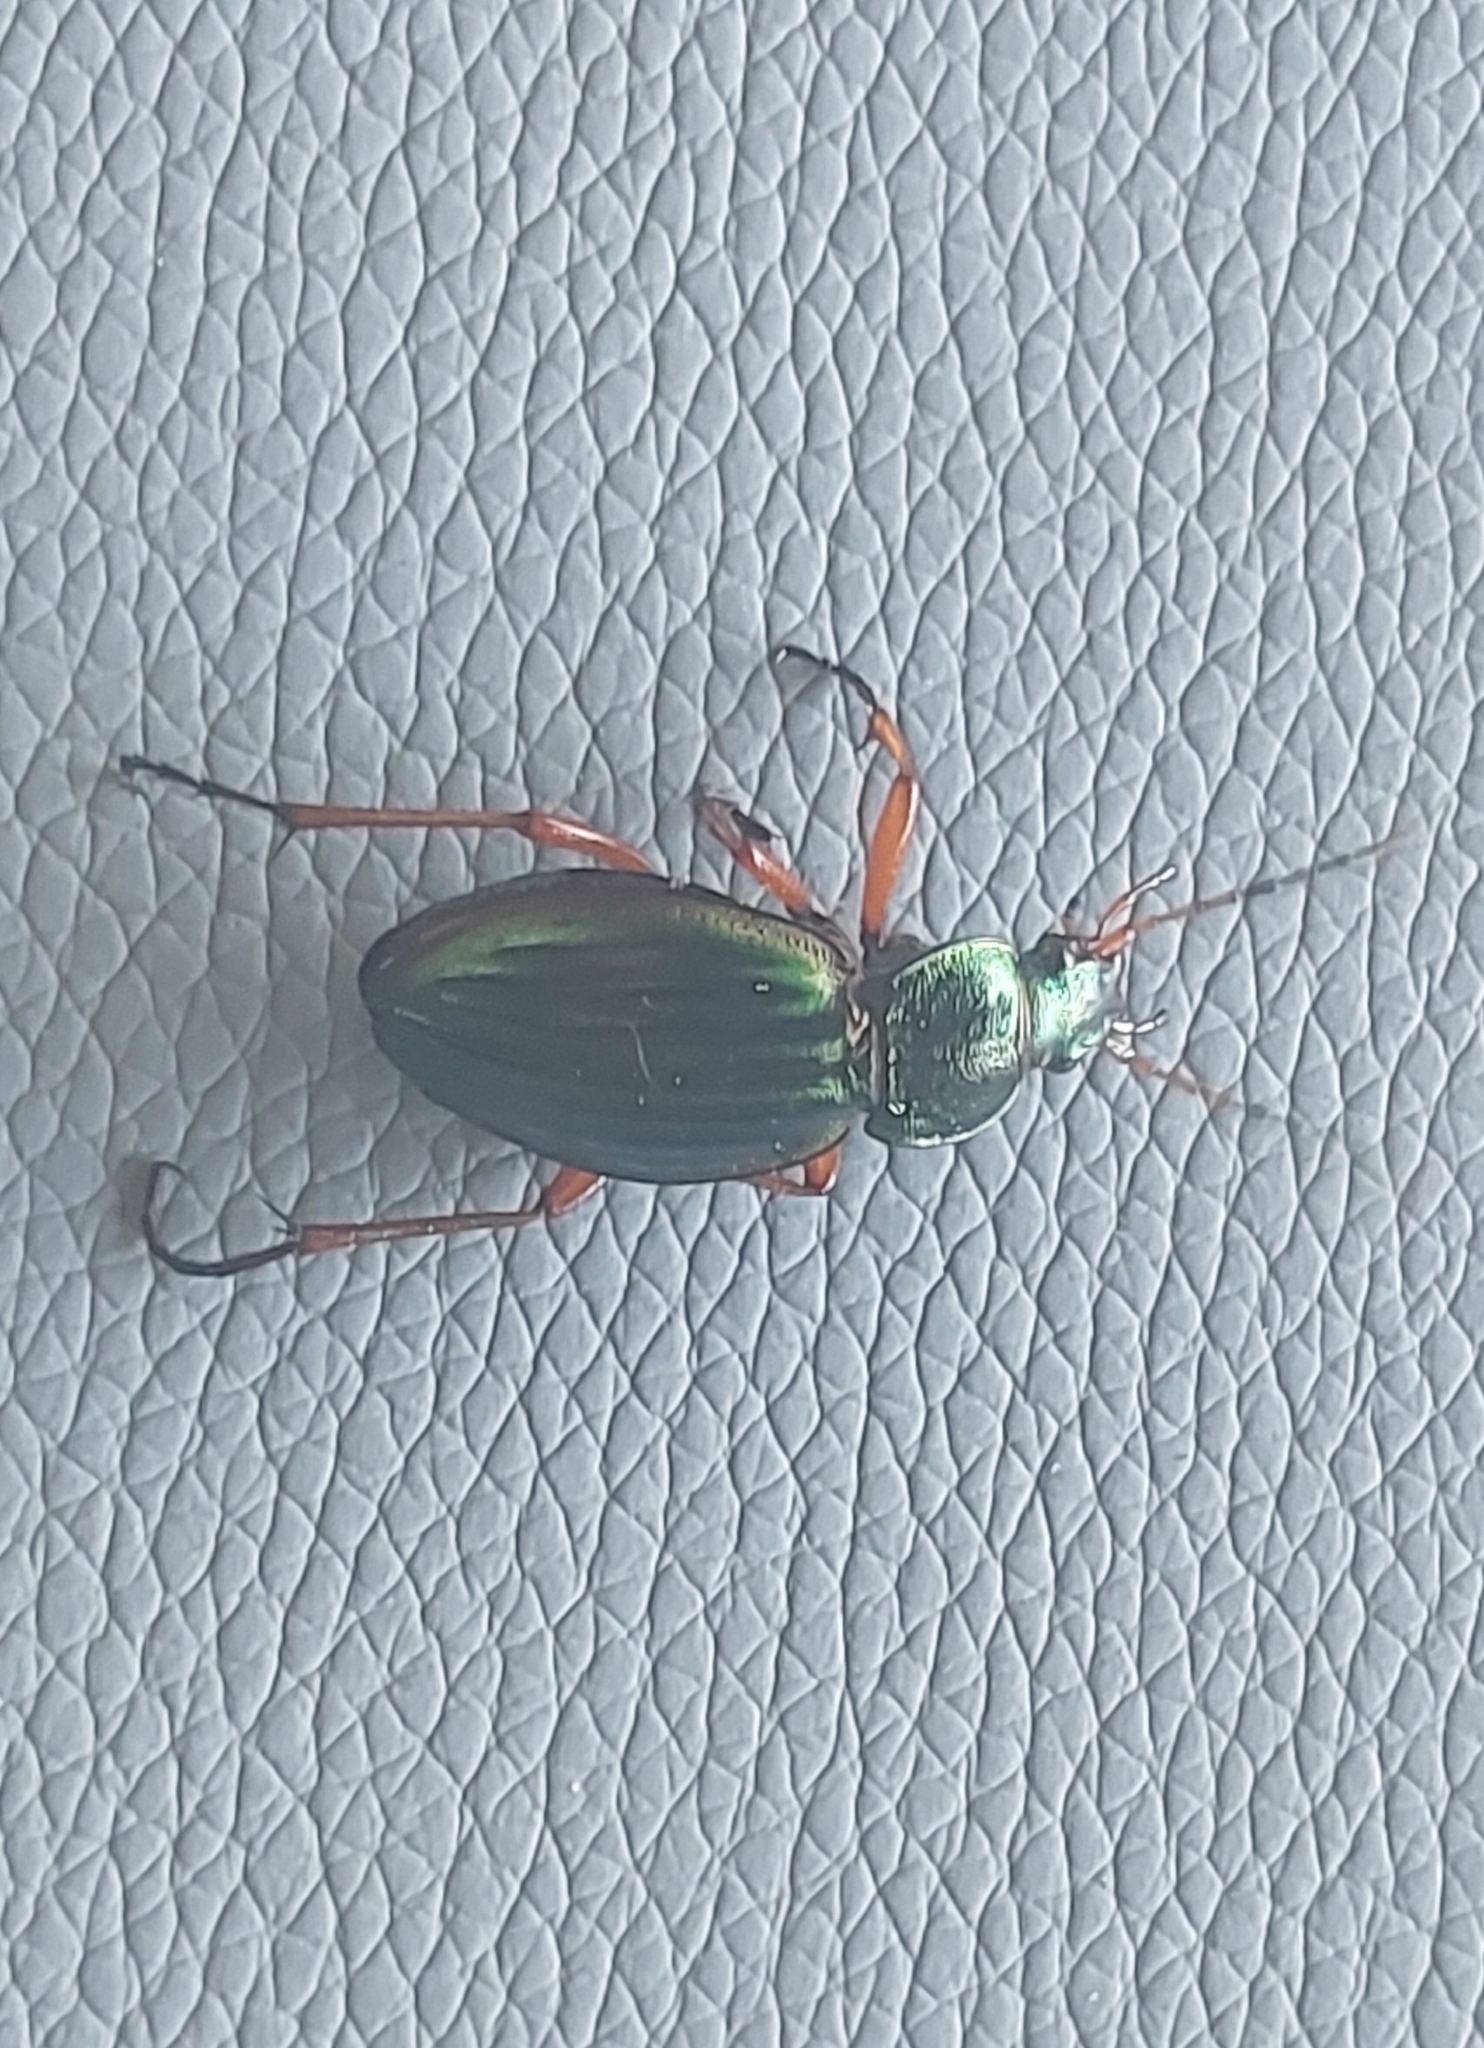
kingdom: Animalia
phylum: Arthropoda
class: Insecta
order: Coleoptera
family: Carabidae
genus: Carabus
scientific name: Carabus auratus
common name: Golden ground beetle
